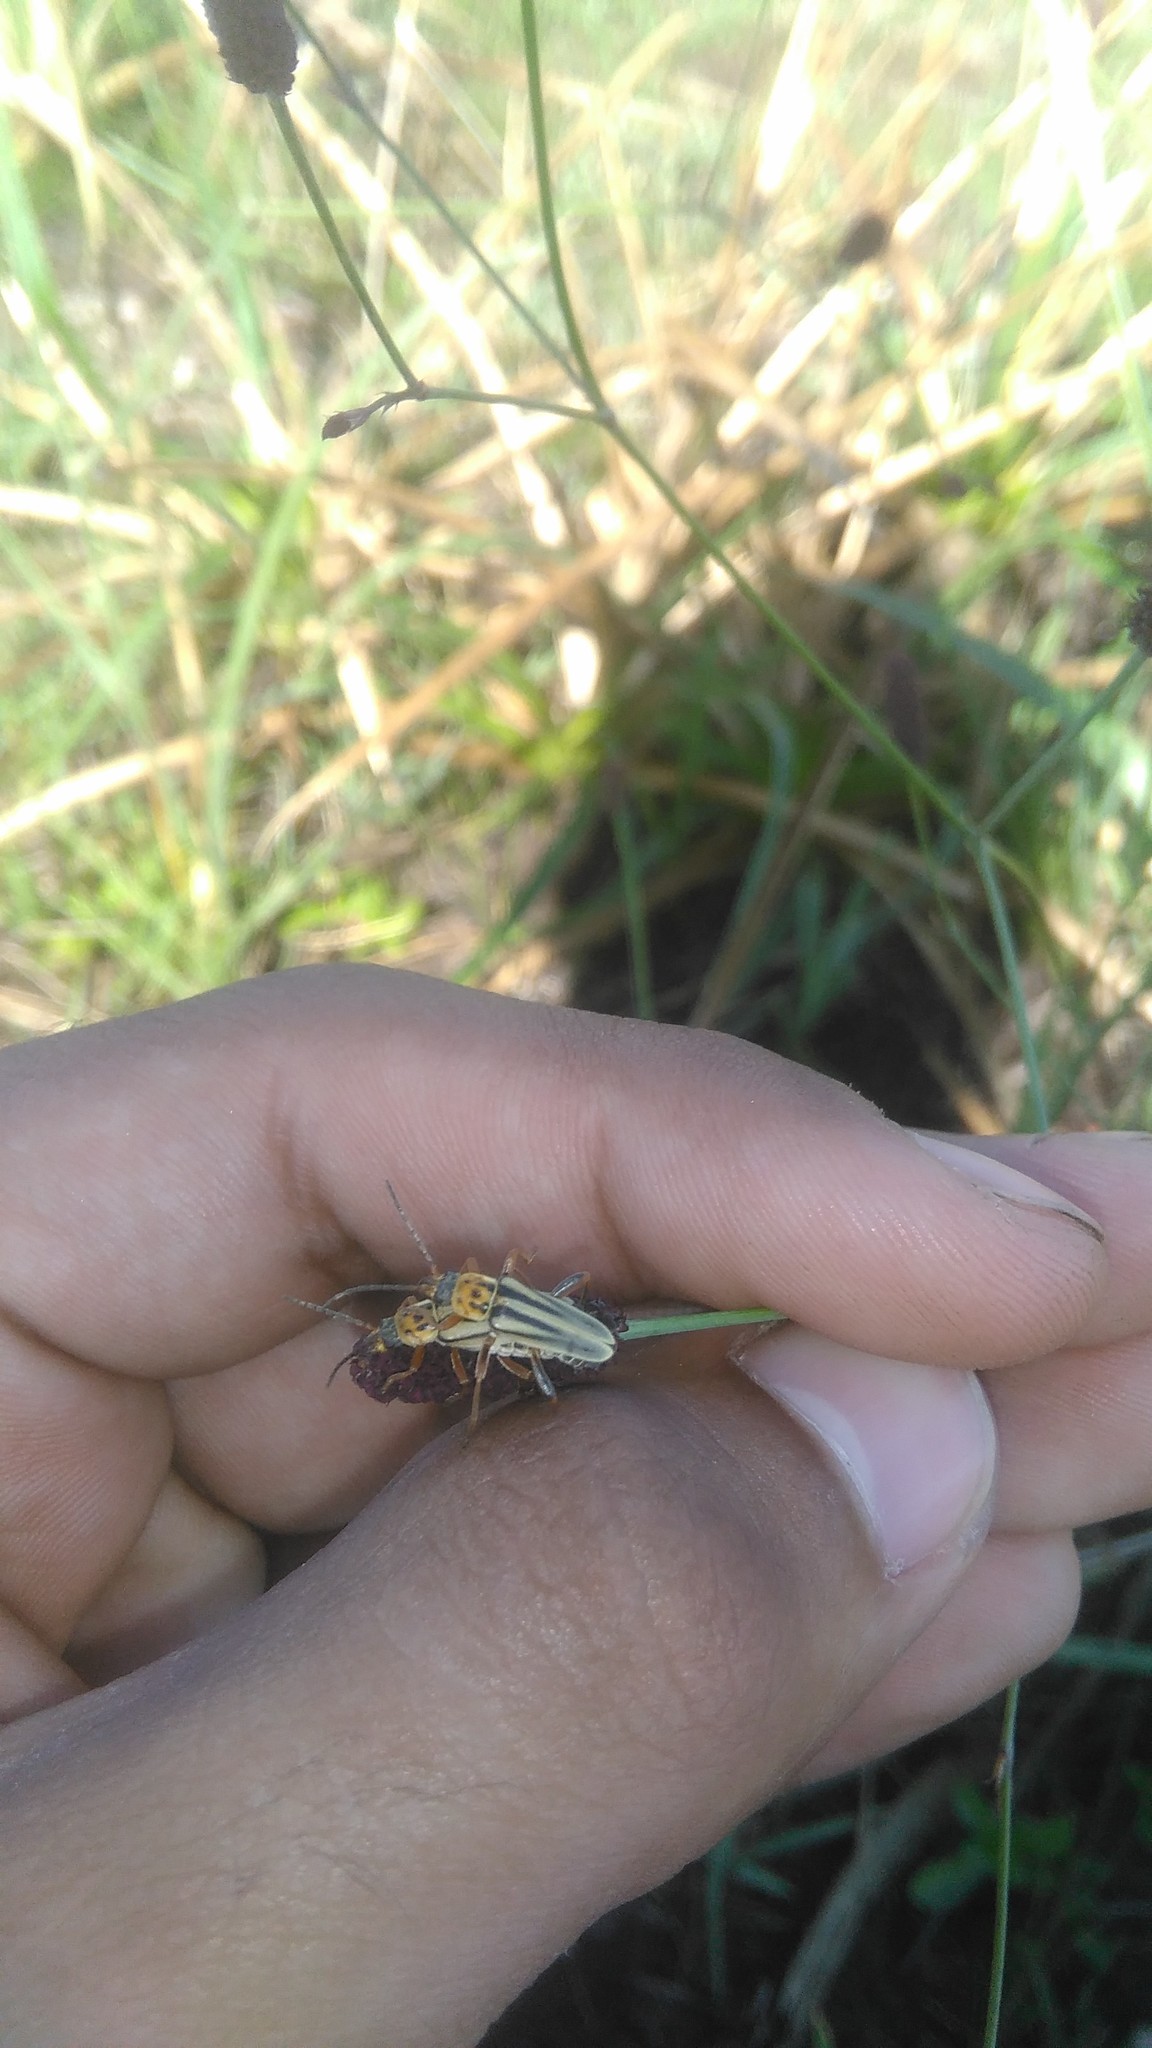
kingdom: Animalia
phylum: Arthropoda
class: Insecta
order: Coleoptera
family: Cantharidae
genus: Chauliognathus
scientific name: Chauliognathus
